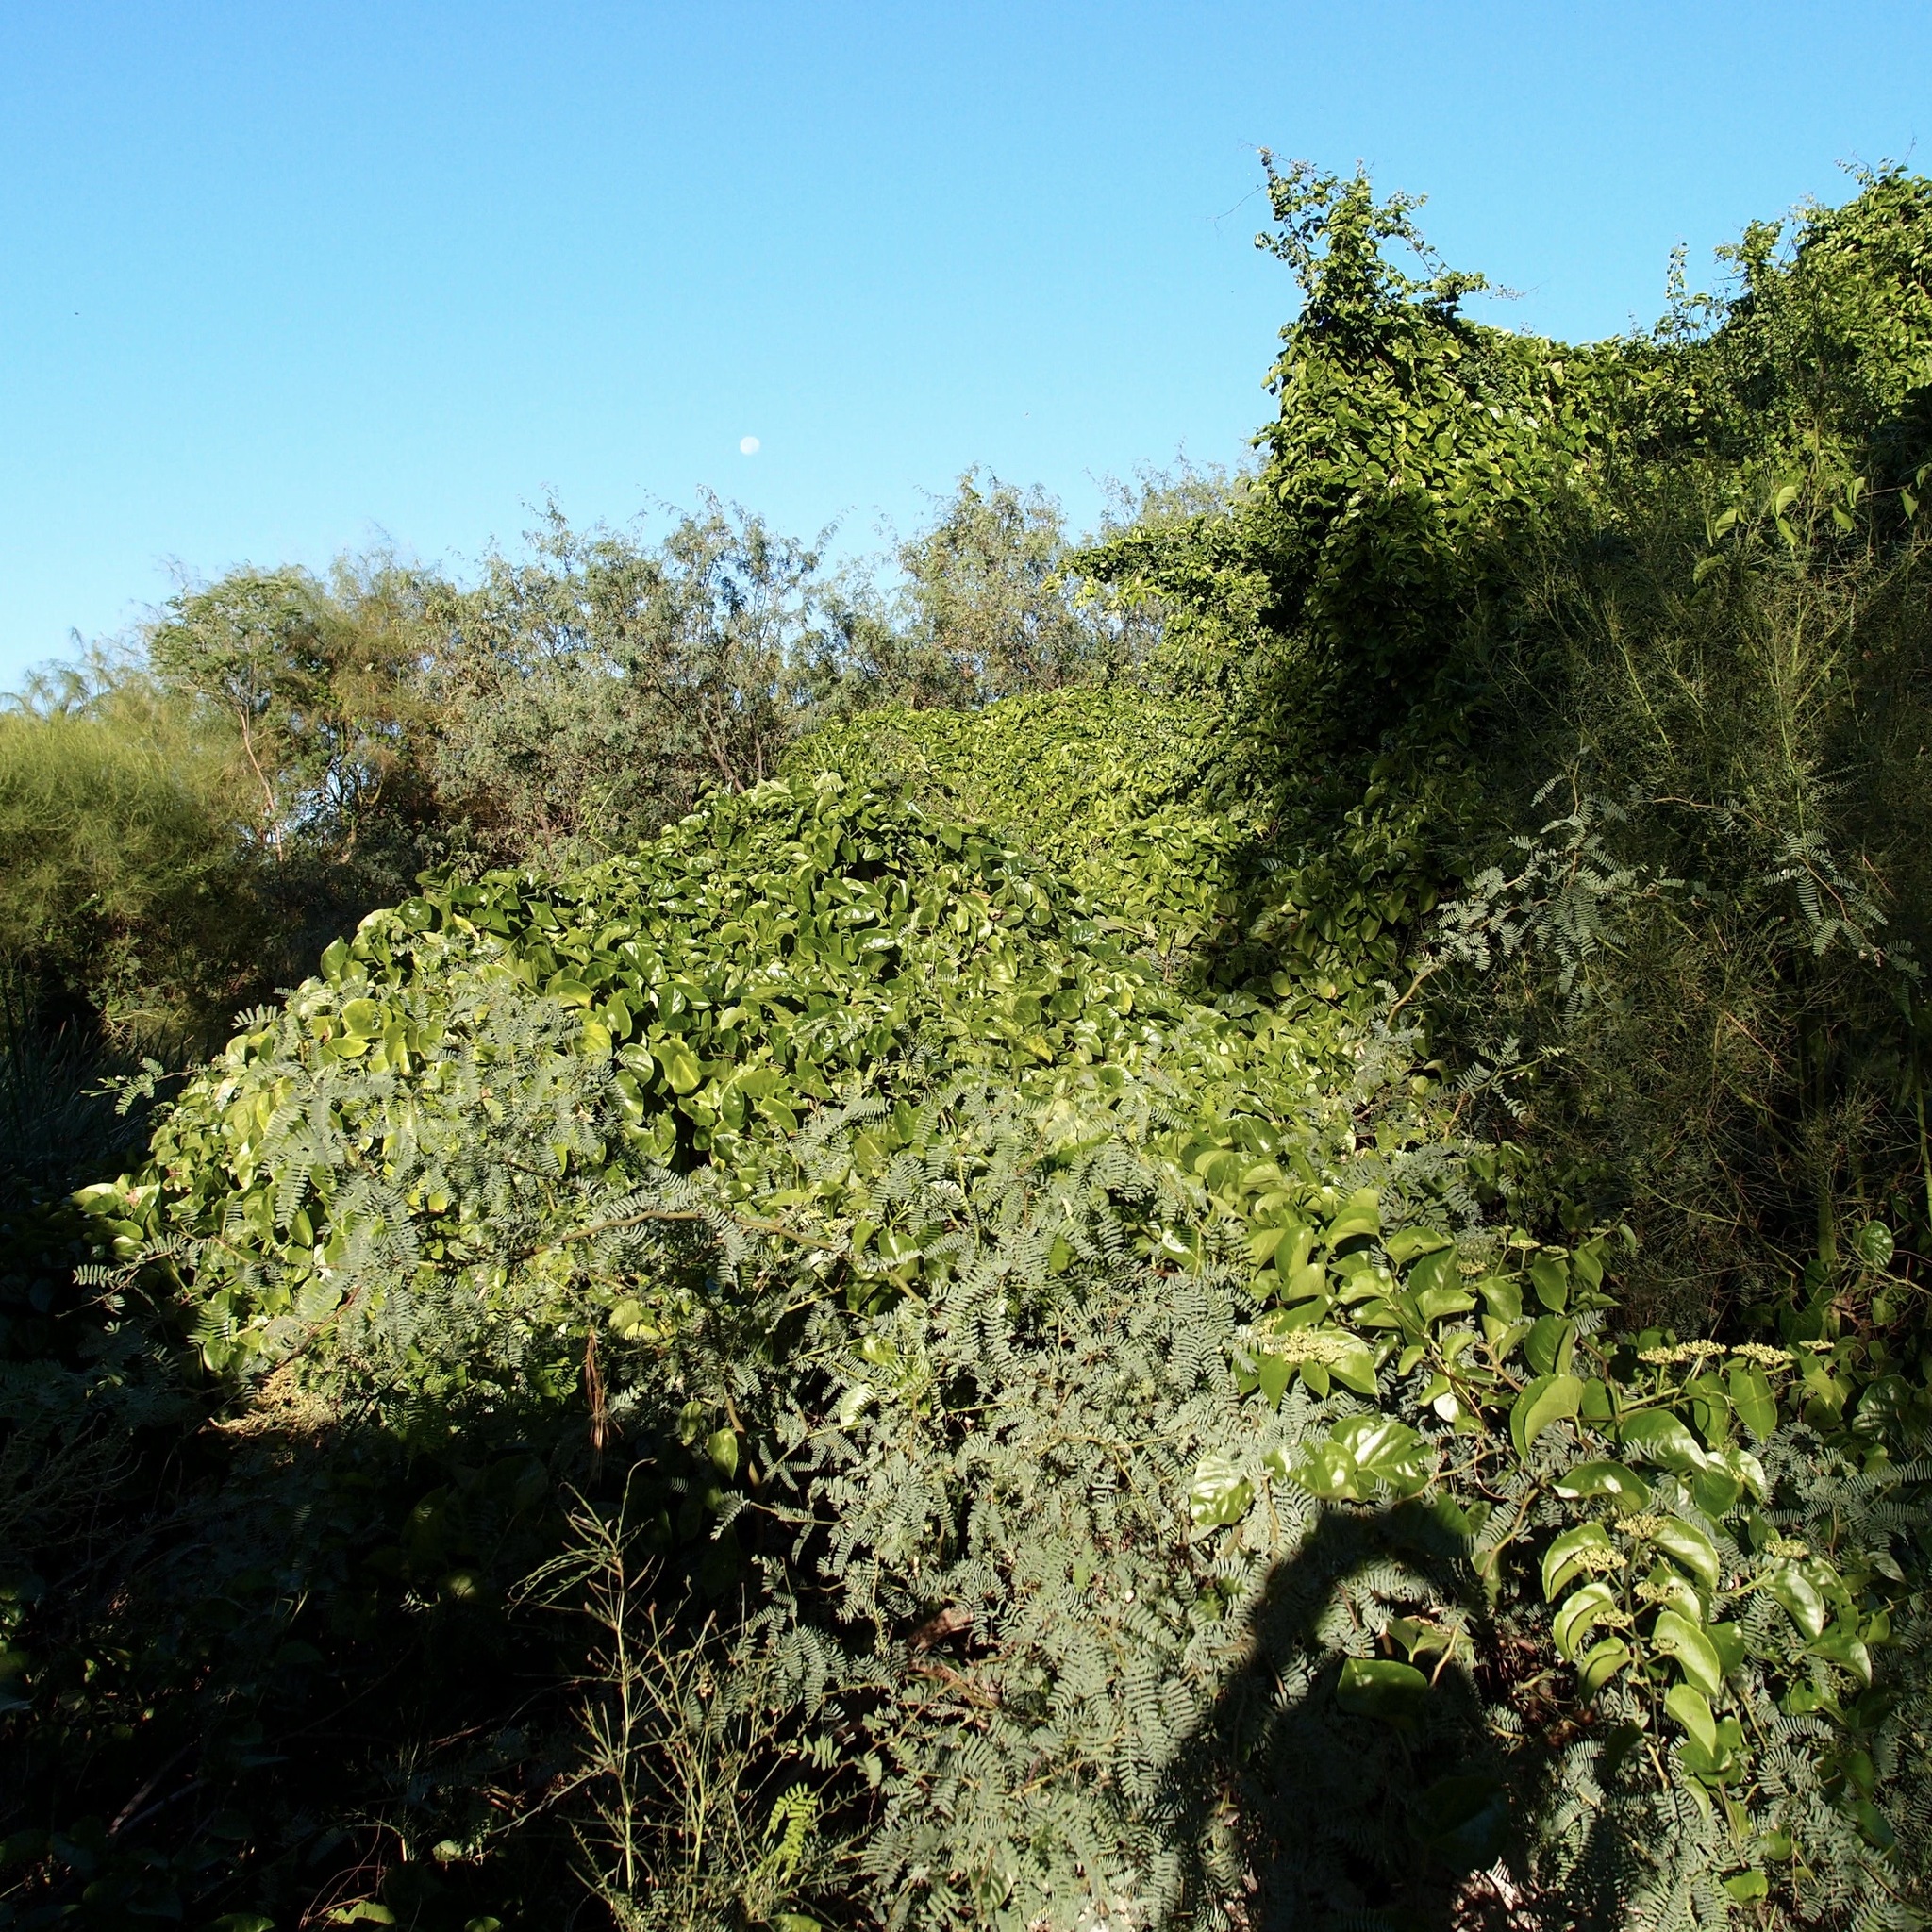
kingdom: Plantae
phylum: Tracheophyta
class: Magnoliopsida
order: Vitales
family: Vitaceae
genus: Cissus
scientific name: Cissus verticillata
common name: Princess vine
